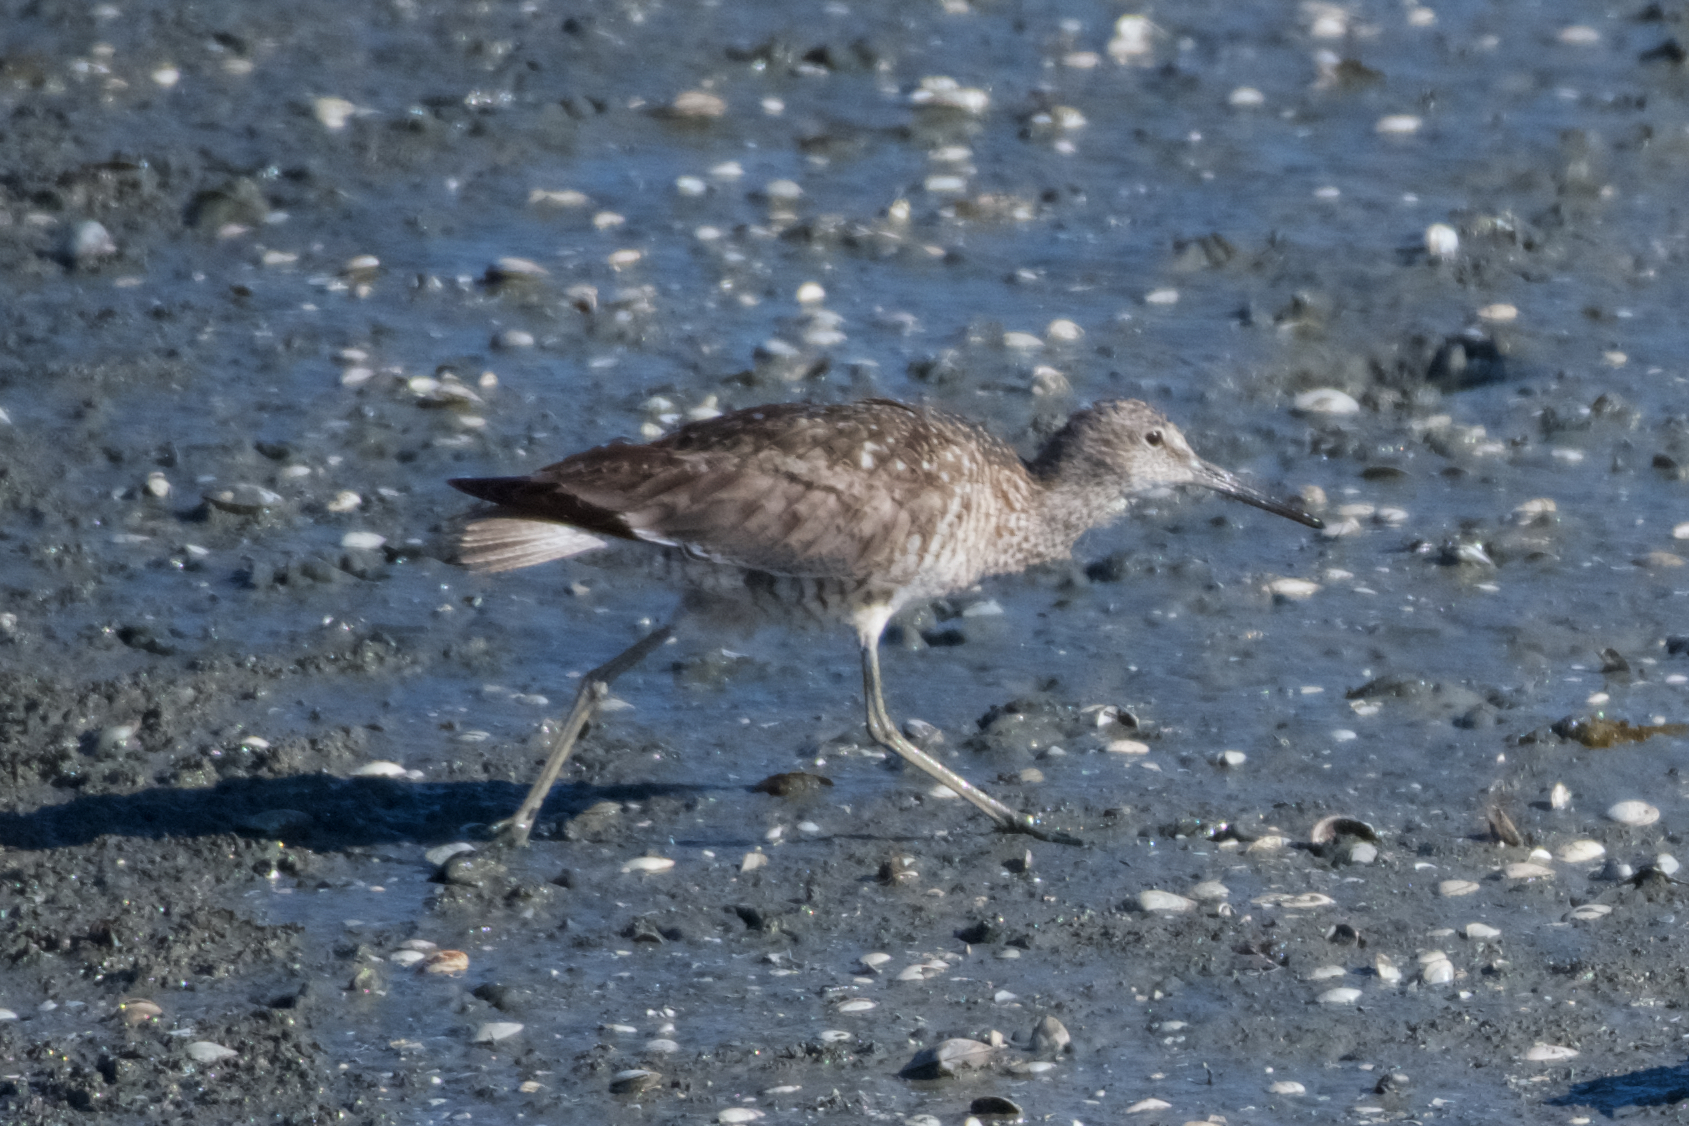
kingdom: Animalia
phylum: Chordata
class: Aves
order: Charadriiformes
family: Scolopacidae
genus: Tringa
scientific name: Tringa semipalmata
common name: Willet
